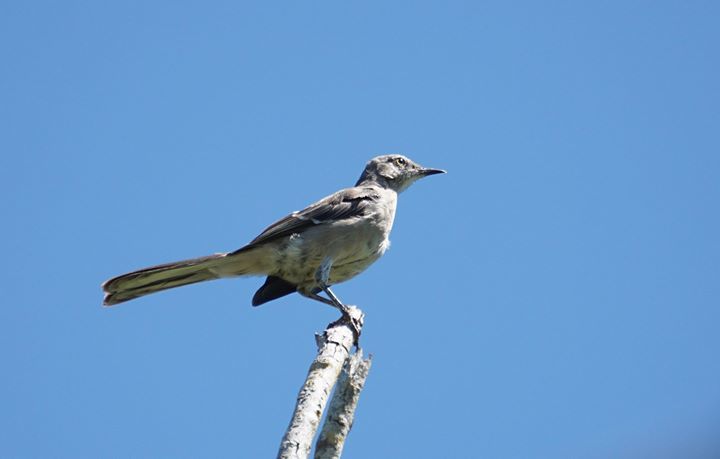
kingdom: Animalia
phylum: Chordata
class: Aves
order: Passeriformes
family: Mimidae
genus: Mimus
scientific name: Mimus polyglottos
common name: Northern mockingbird
